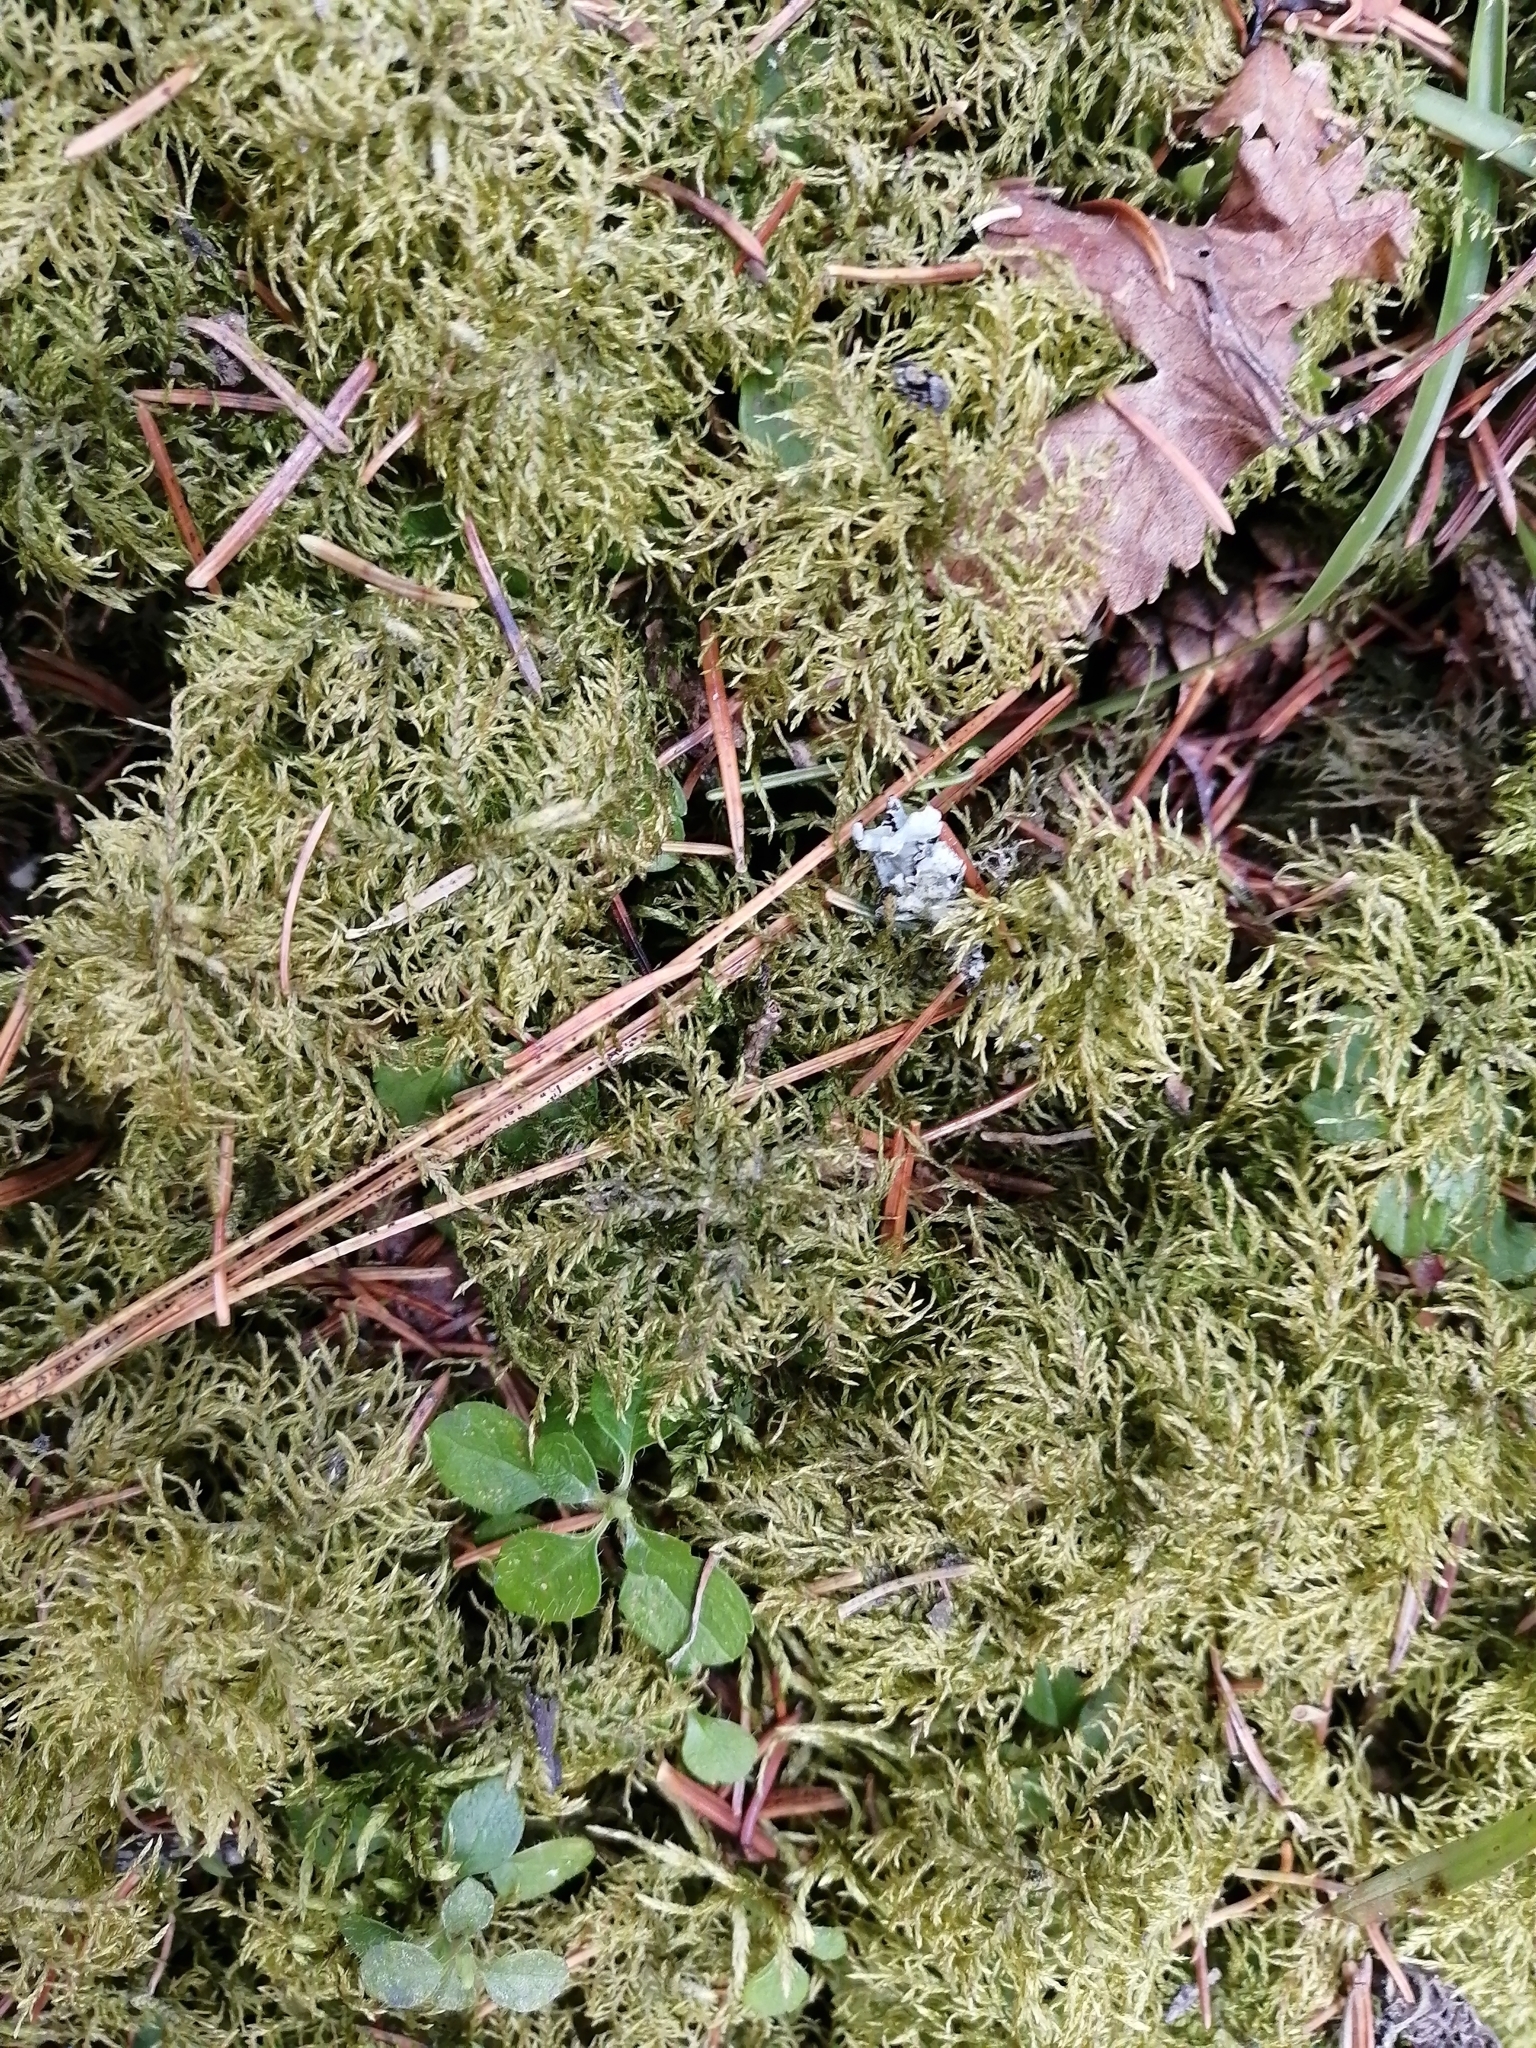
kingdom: Plantae
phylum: Bryophyta
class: Bryopsida
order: Hypnales
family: Hylocomiaceae
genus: Hylocomium
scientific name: Hylocomium splendens
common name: Stairstep moss
